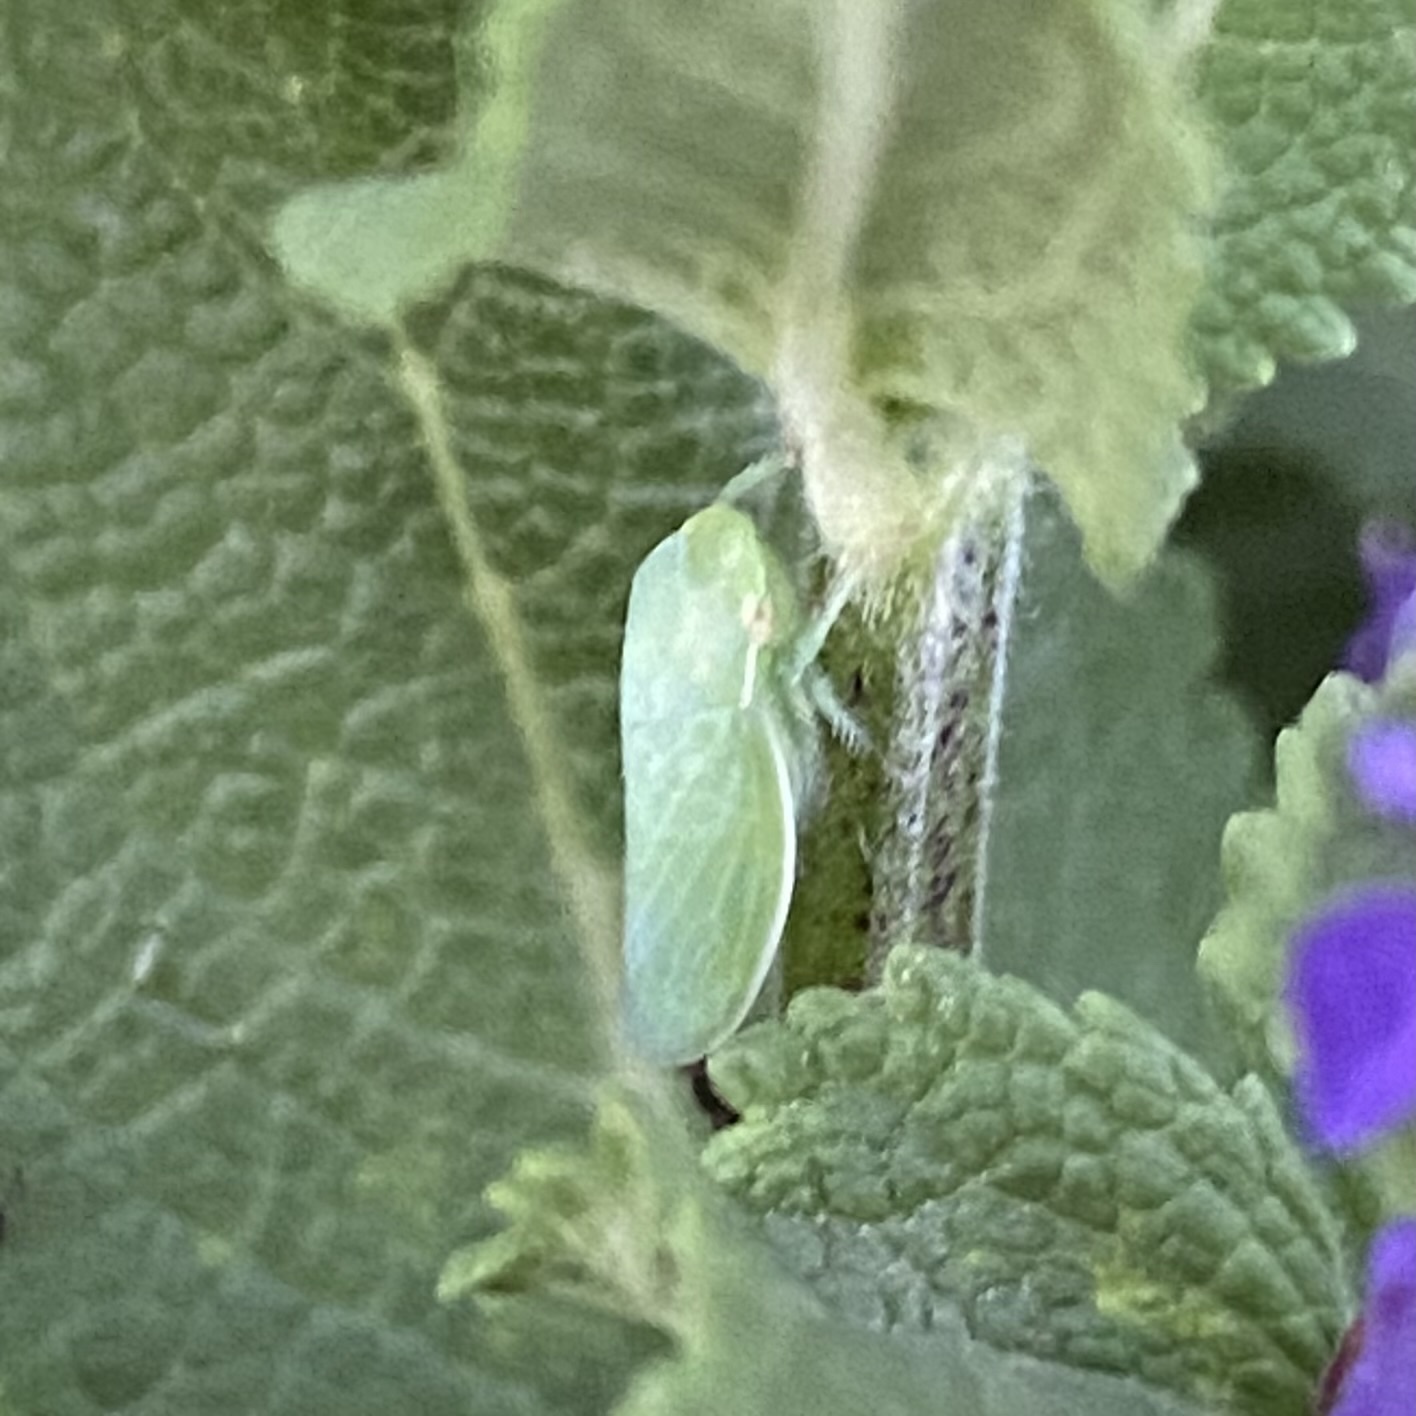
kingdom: Animalia
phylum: Arthropoda
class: Insecta
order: Hemiptera
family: Cicadellidae
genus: Gyponana
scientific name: Gyponana
